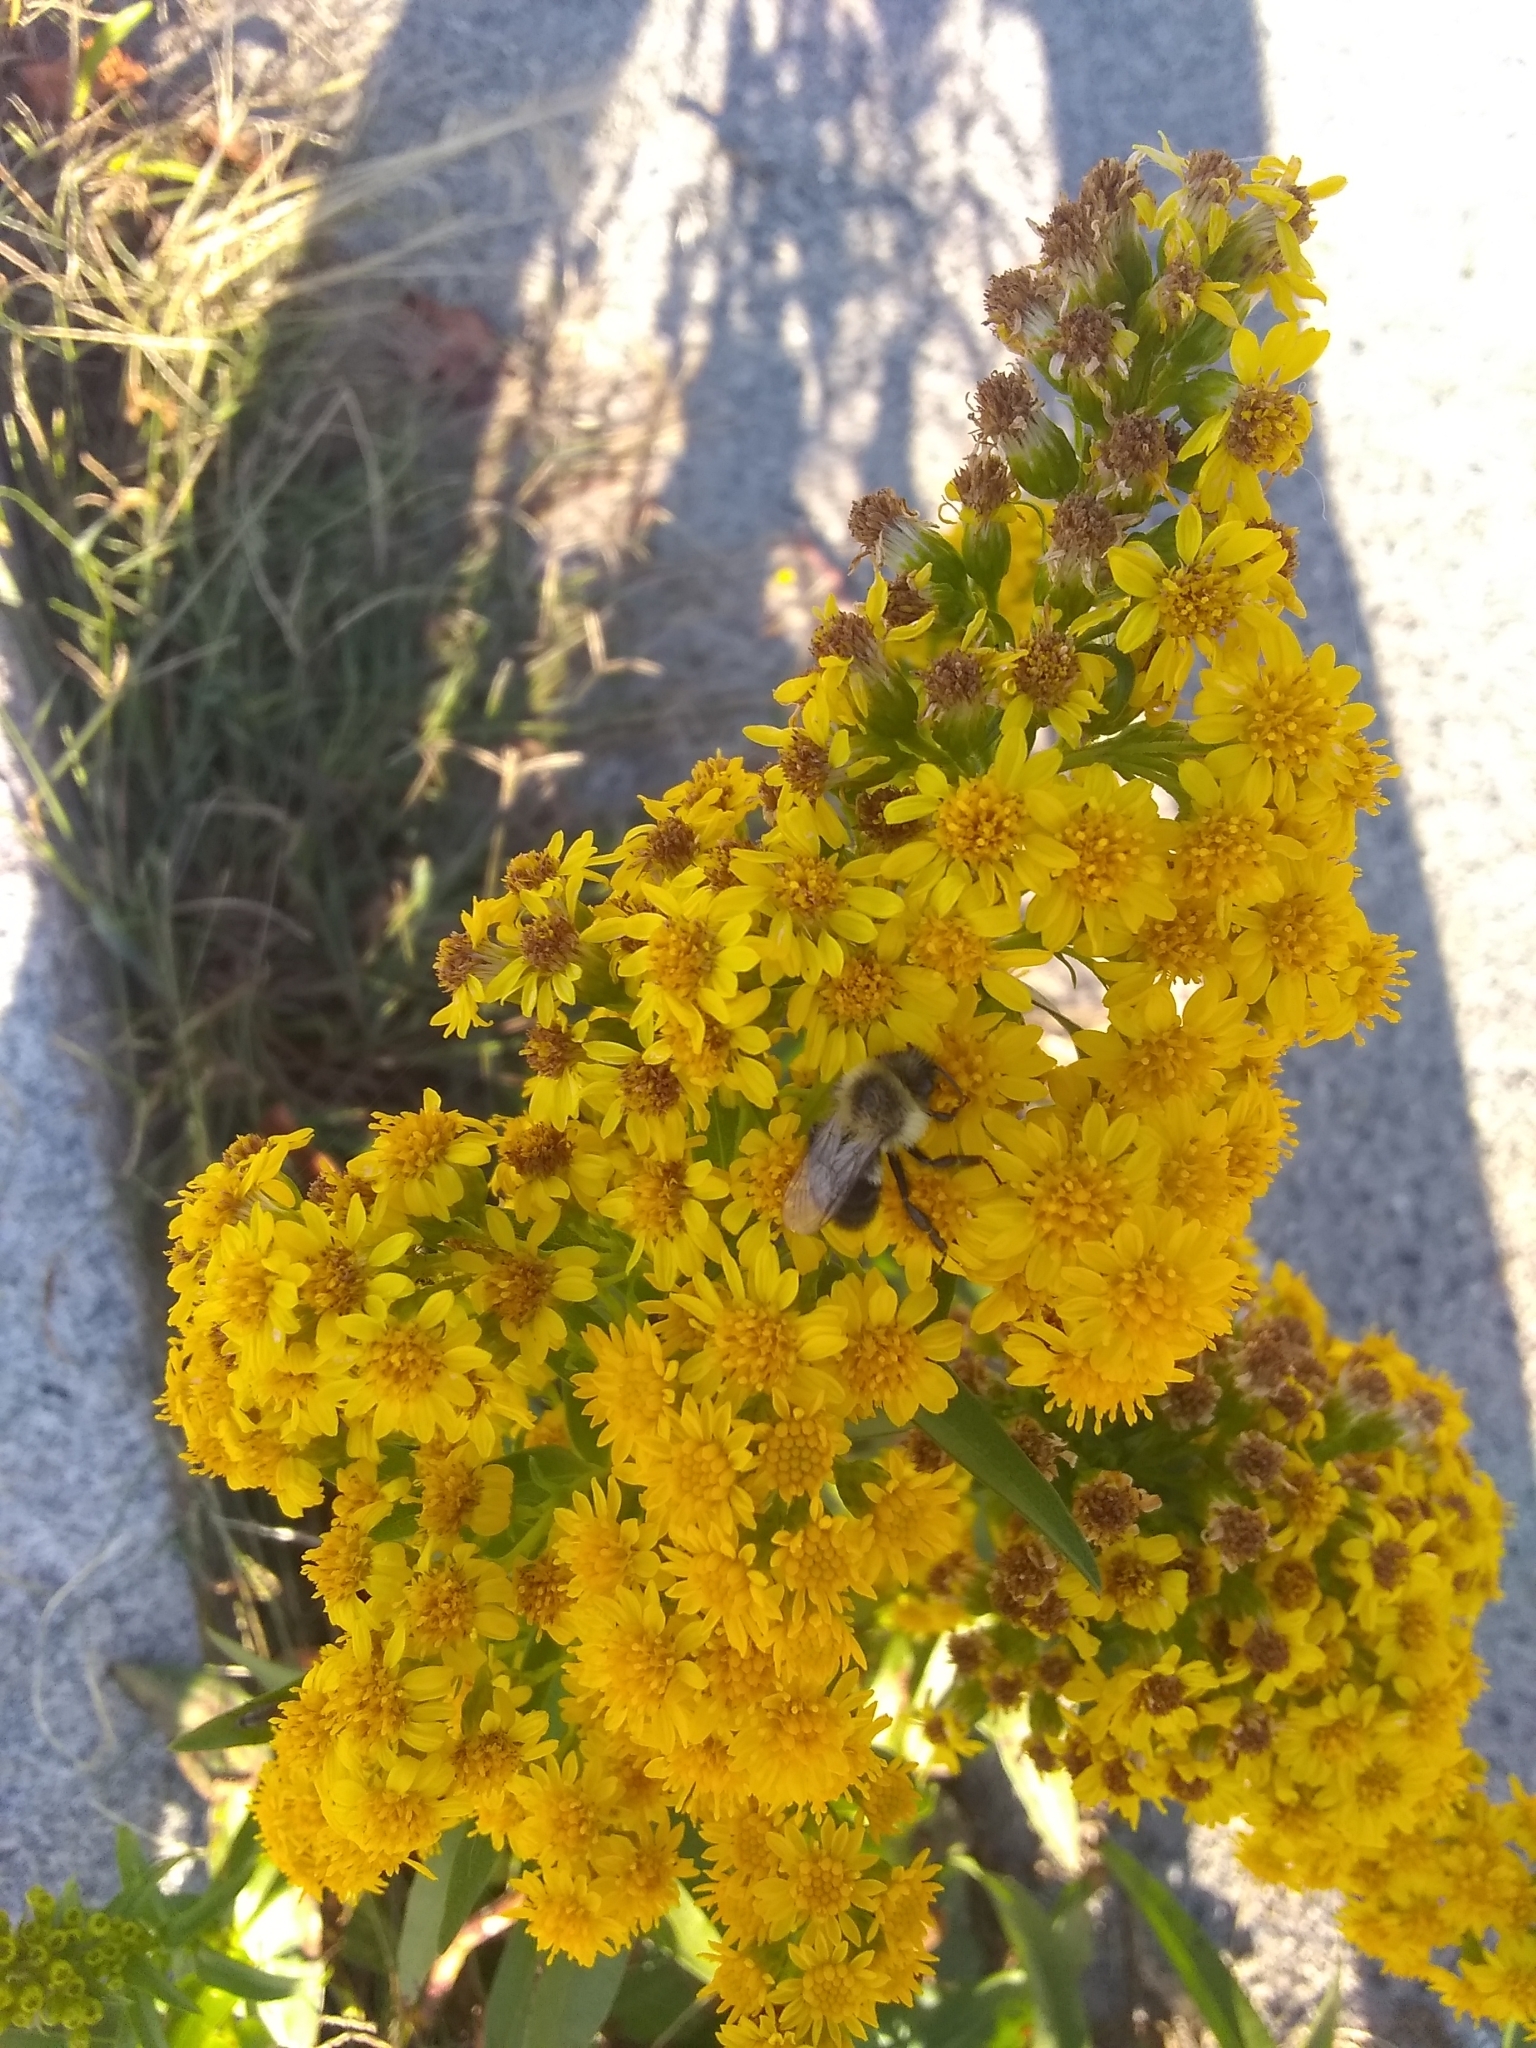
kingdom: Plantae
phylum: Tracheophyta
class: Magnoliopsida
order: Asterales
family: Asteraceae
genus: Solidago
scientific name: Solidago sempervirens
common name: Salt-marsh goldenrod
